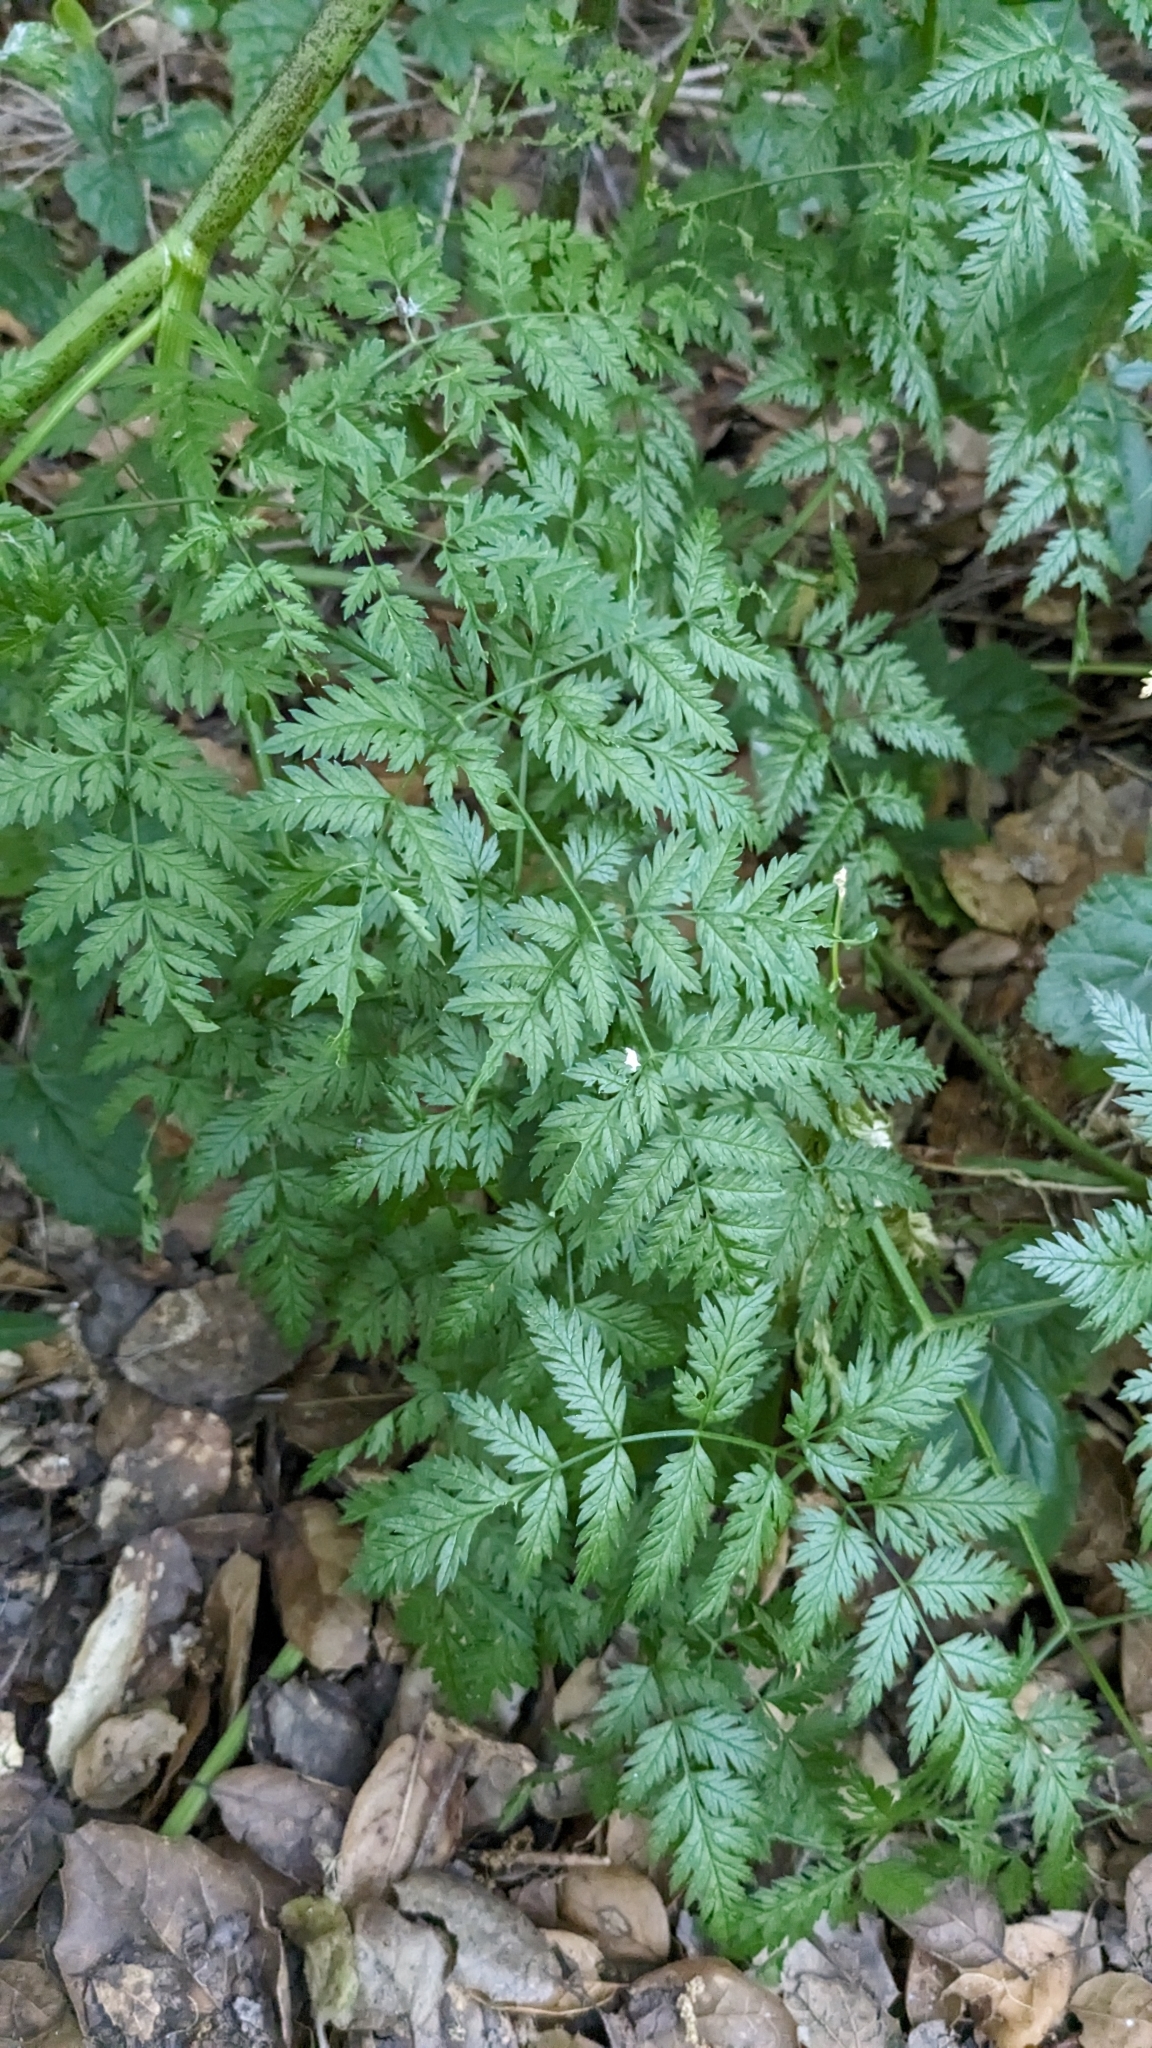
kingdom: Plantae
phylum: Tracheophyta
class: Magnoliopsida
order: Apiales
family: Apiaceae
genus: Conium
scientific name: Conium maculatum
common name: Hemlock
